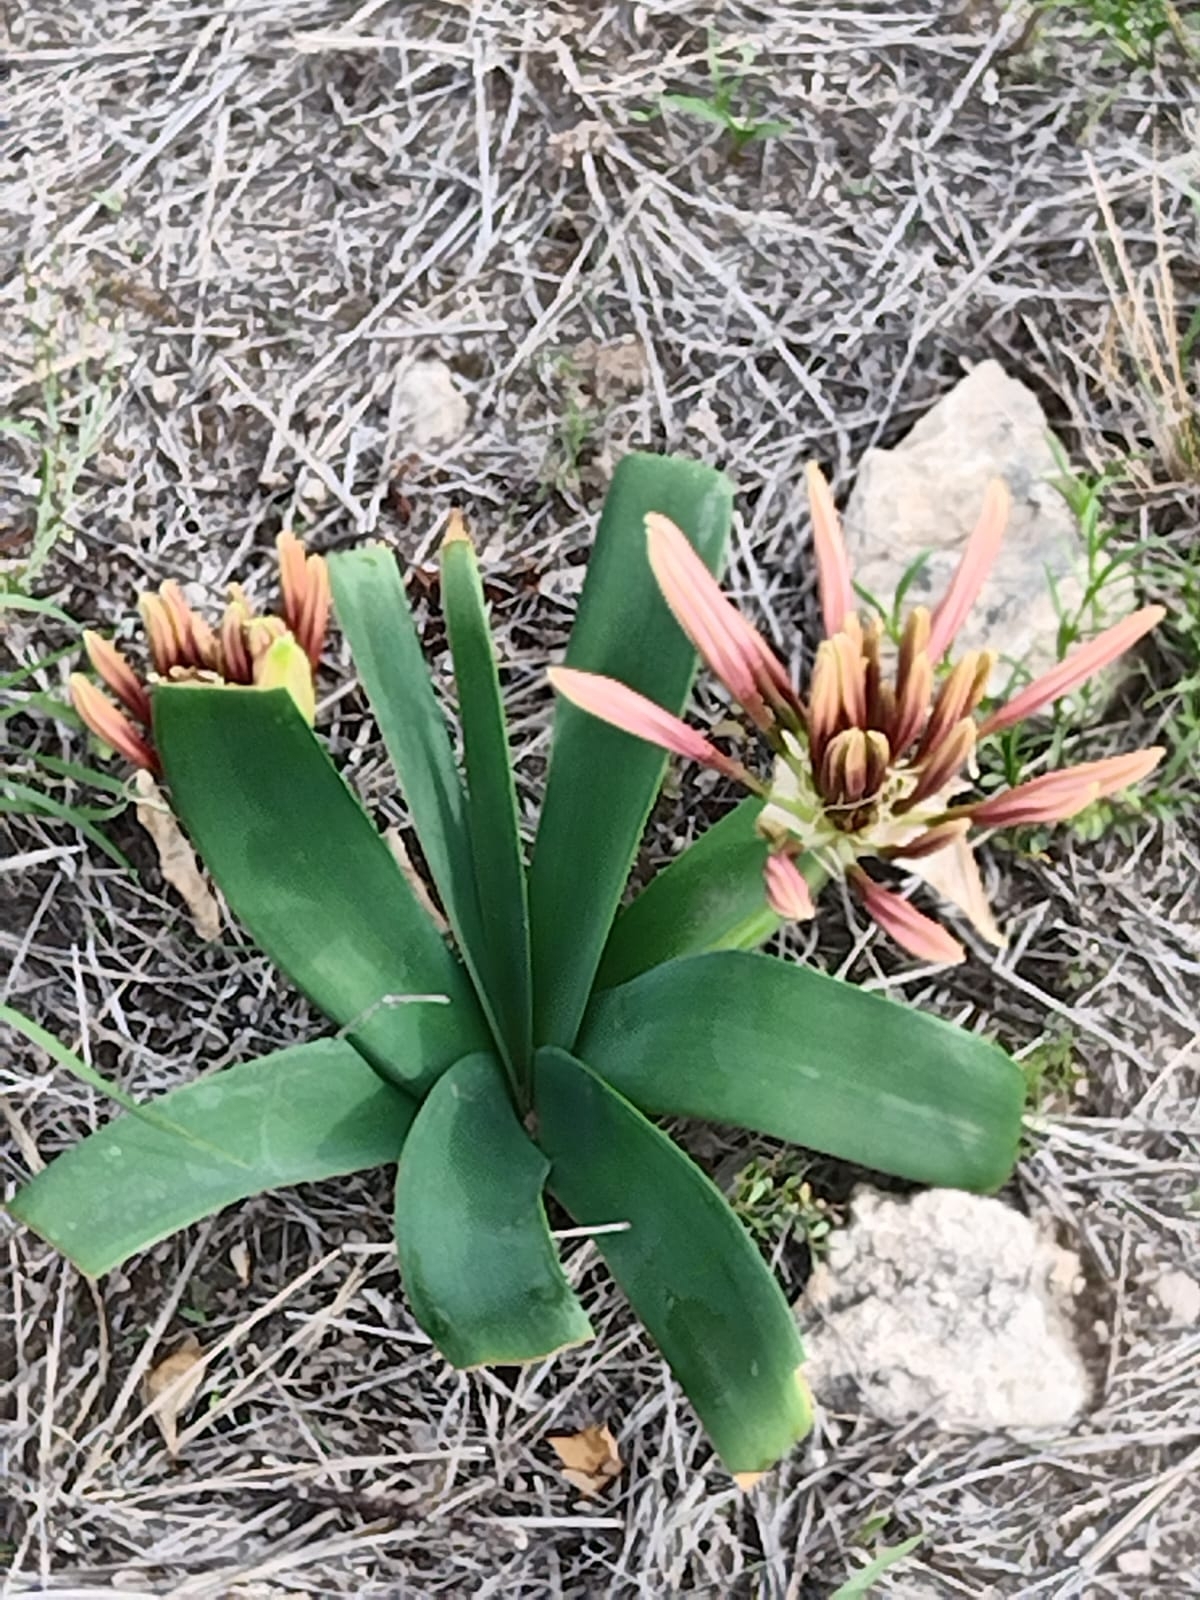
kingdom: Plantae
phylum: Tracheophyta
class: Liliopsida
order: Asparagales
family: Amaryllidaceae
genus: Ammocharis
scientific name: Ammocharis coranica
